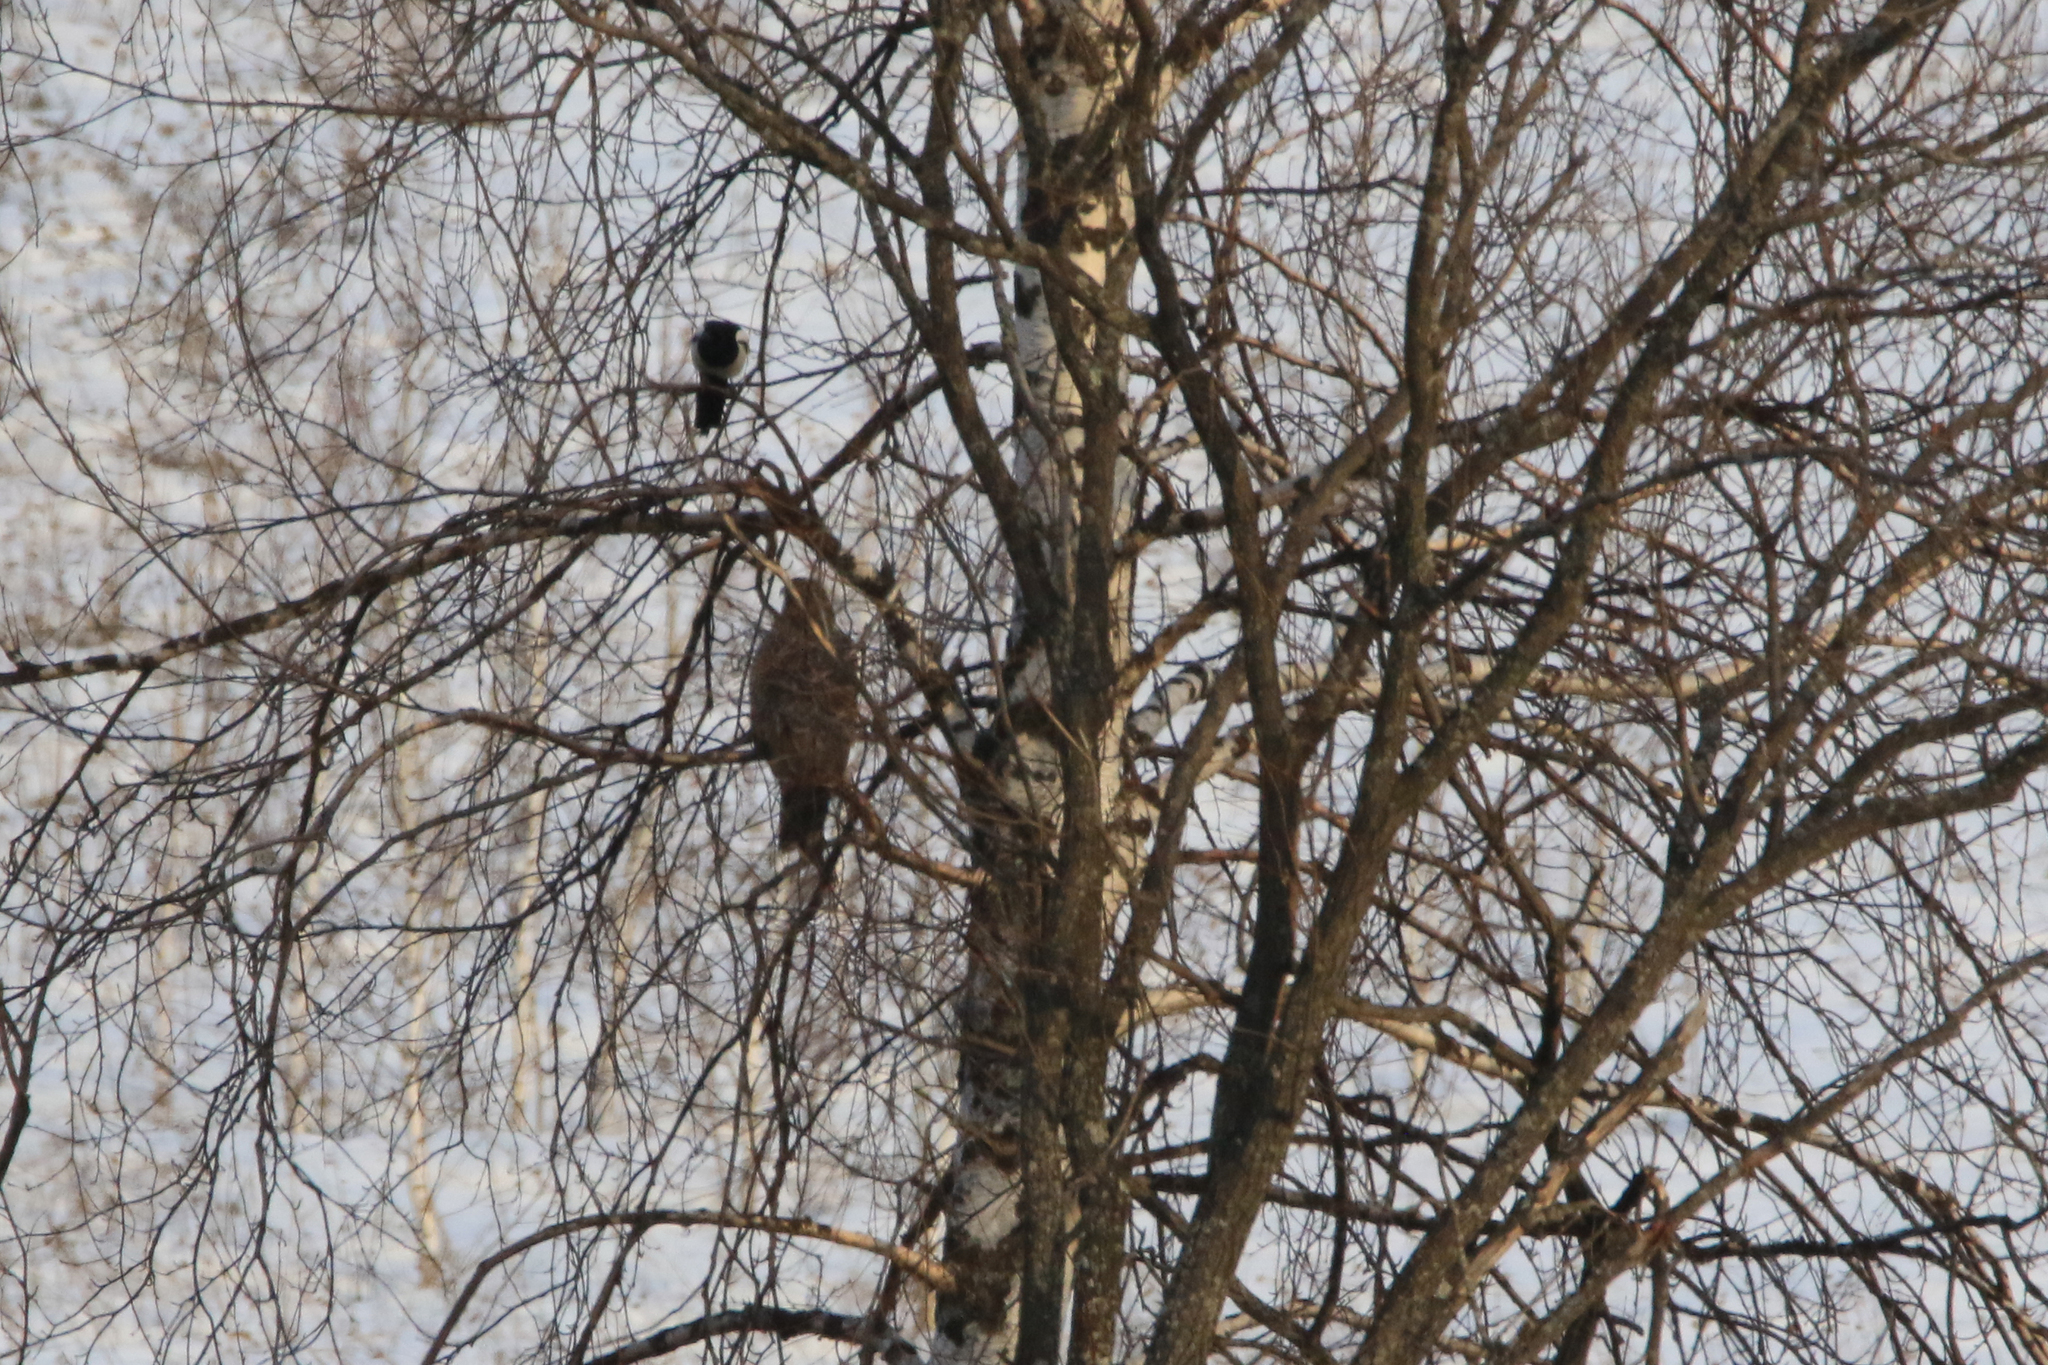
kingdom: Animalia
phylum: Chordata
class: Aves
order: Accipitriformes
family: Accipitridae
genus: Milvus
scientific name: Milvus migrans
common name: Black kite
